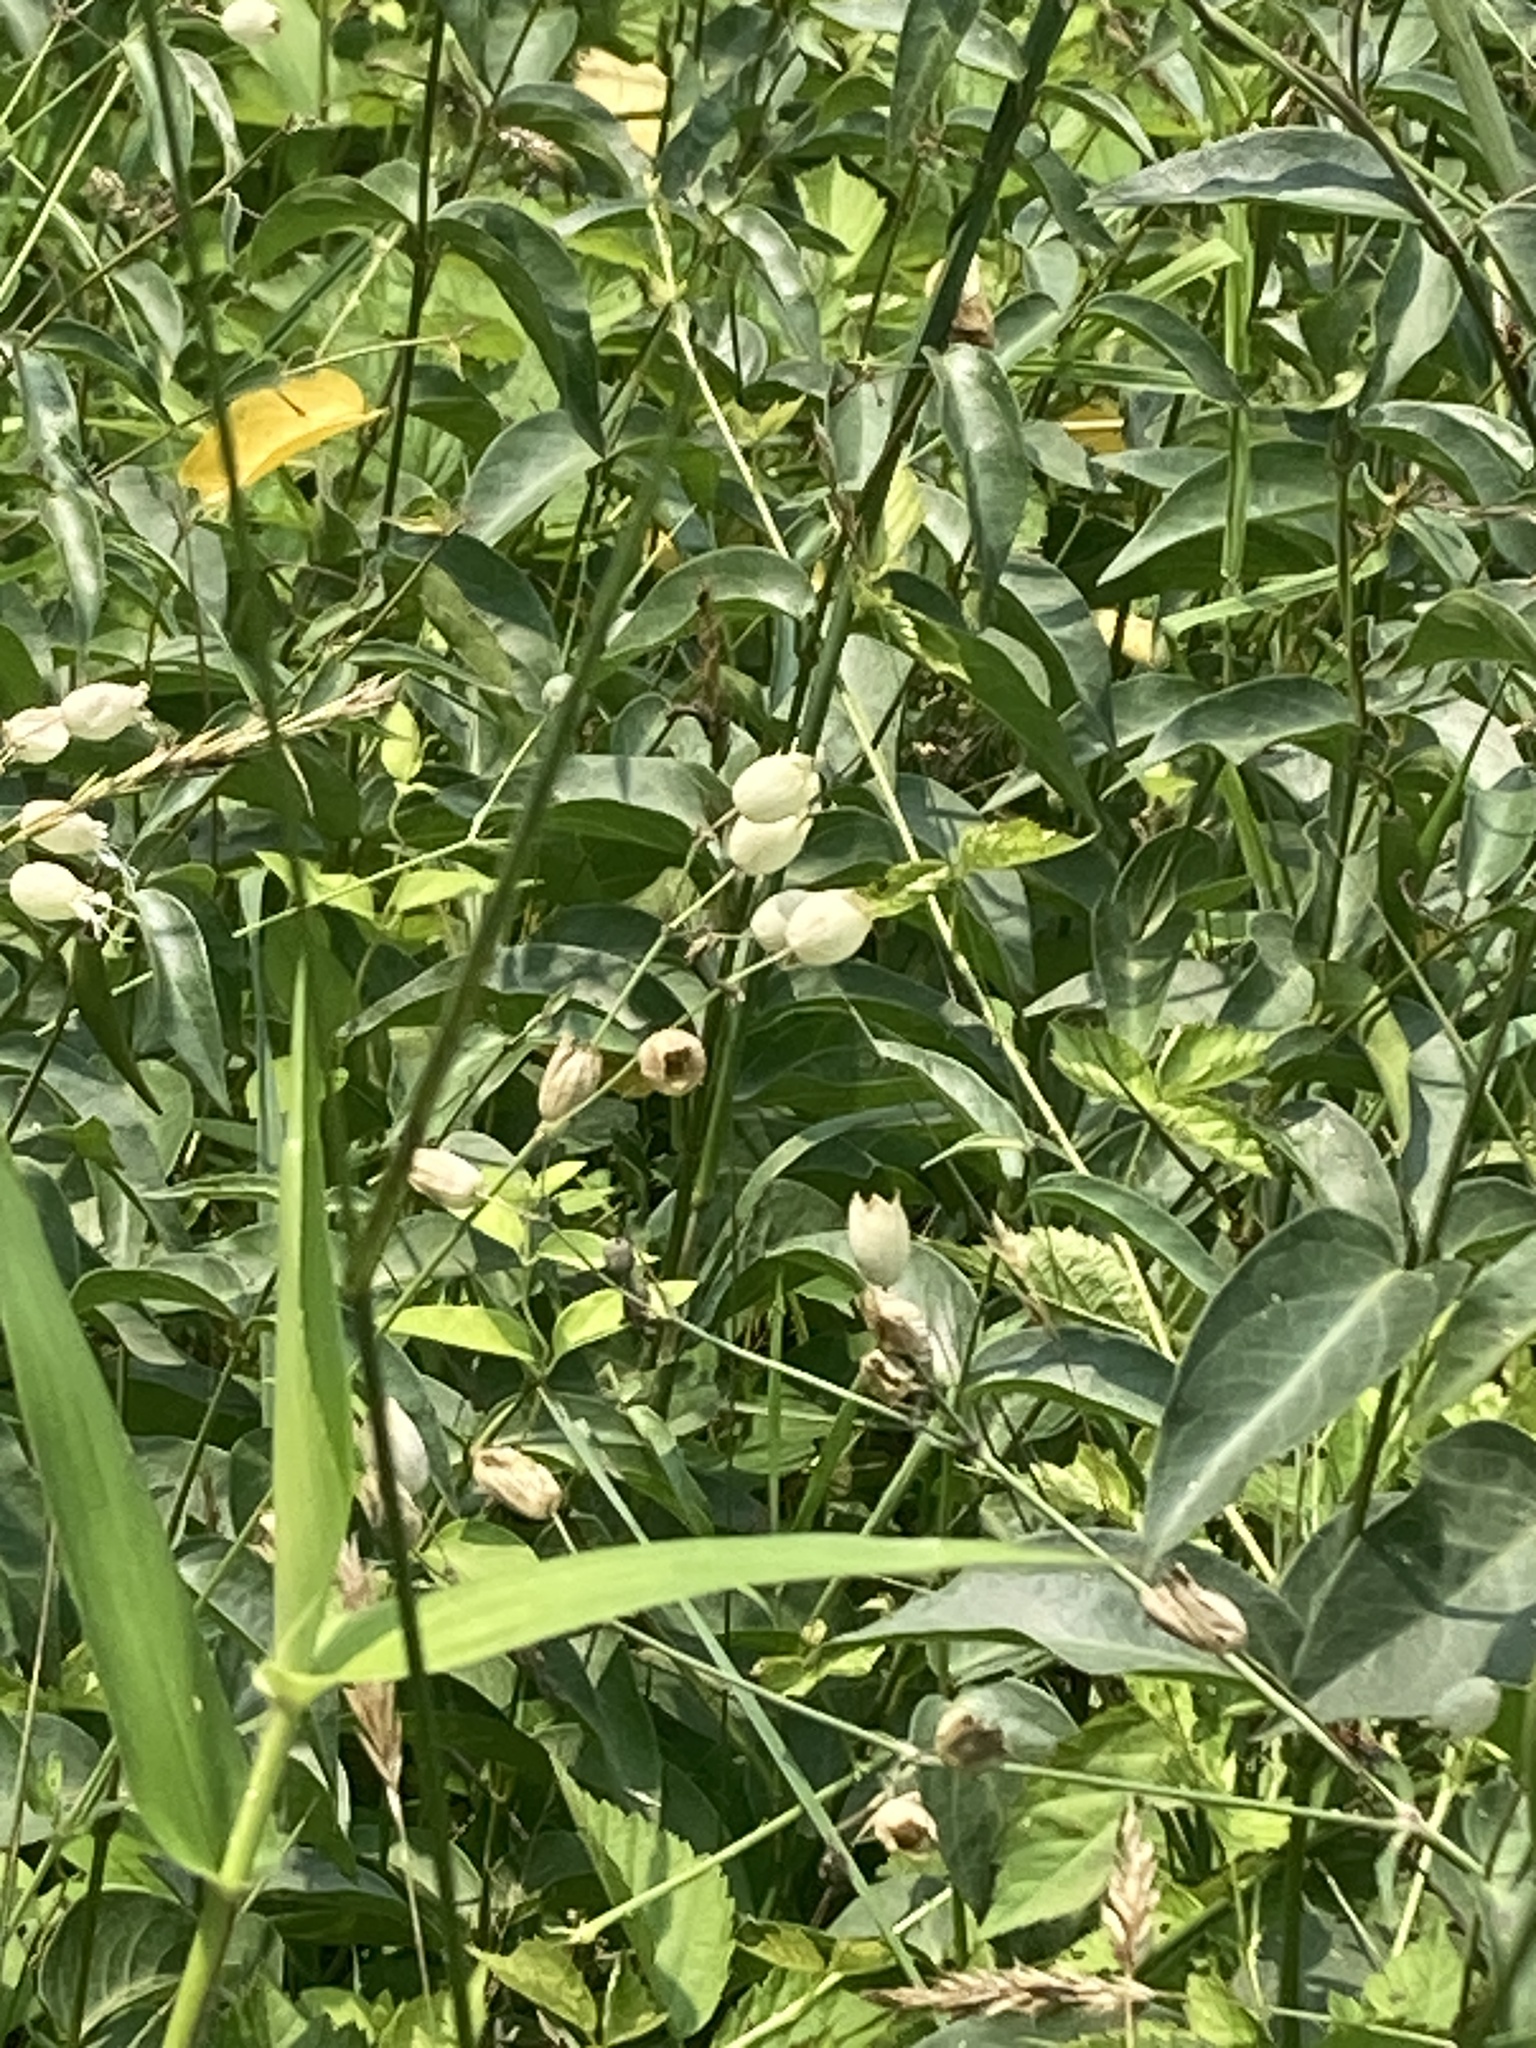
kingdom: Plantae
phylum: Tracheophyta
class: Magnoliopsida
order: Caryophyllales
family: Caryophyllaceae
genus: Silene
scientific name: Silene vulgaris
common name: Bladder campion
